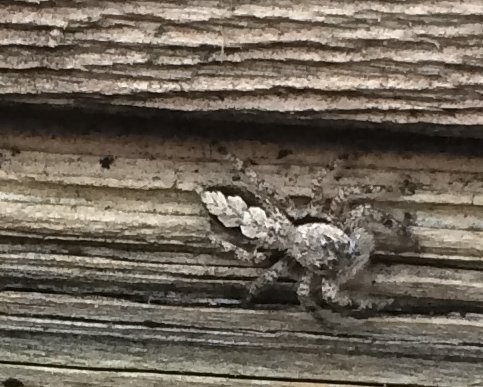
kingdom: Animalia
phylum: Arthropoda
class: Arachnida
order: Araneae
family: Salticidae
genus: Platycryptus
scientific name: Platycryptus undatus
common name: Tan jumping spider
